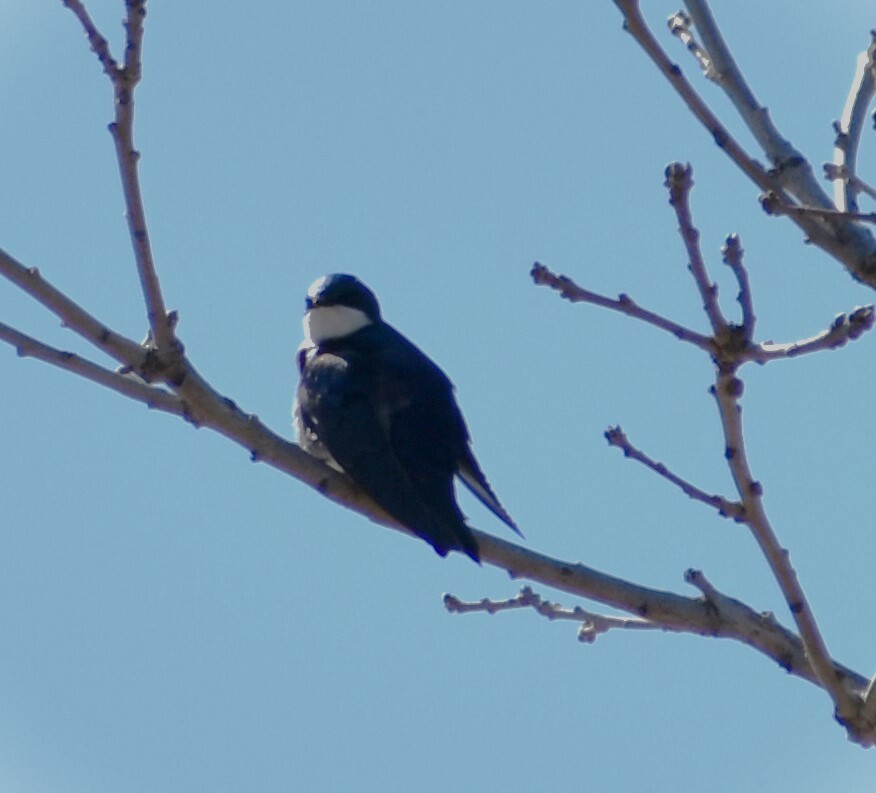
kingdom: Animalia
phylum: Chordata
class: Aves
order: Passeriformes
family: Hirundinidae
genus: Tachycineta
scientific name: Tachycineta bicolor
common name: Tree swallow
